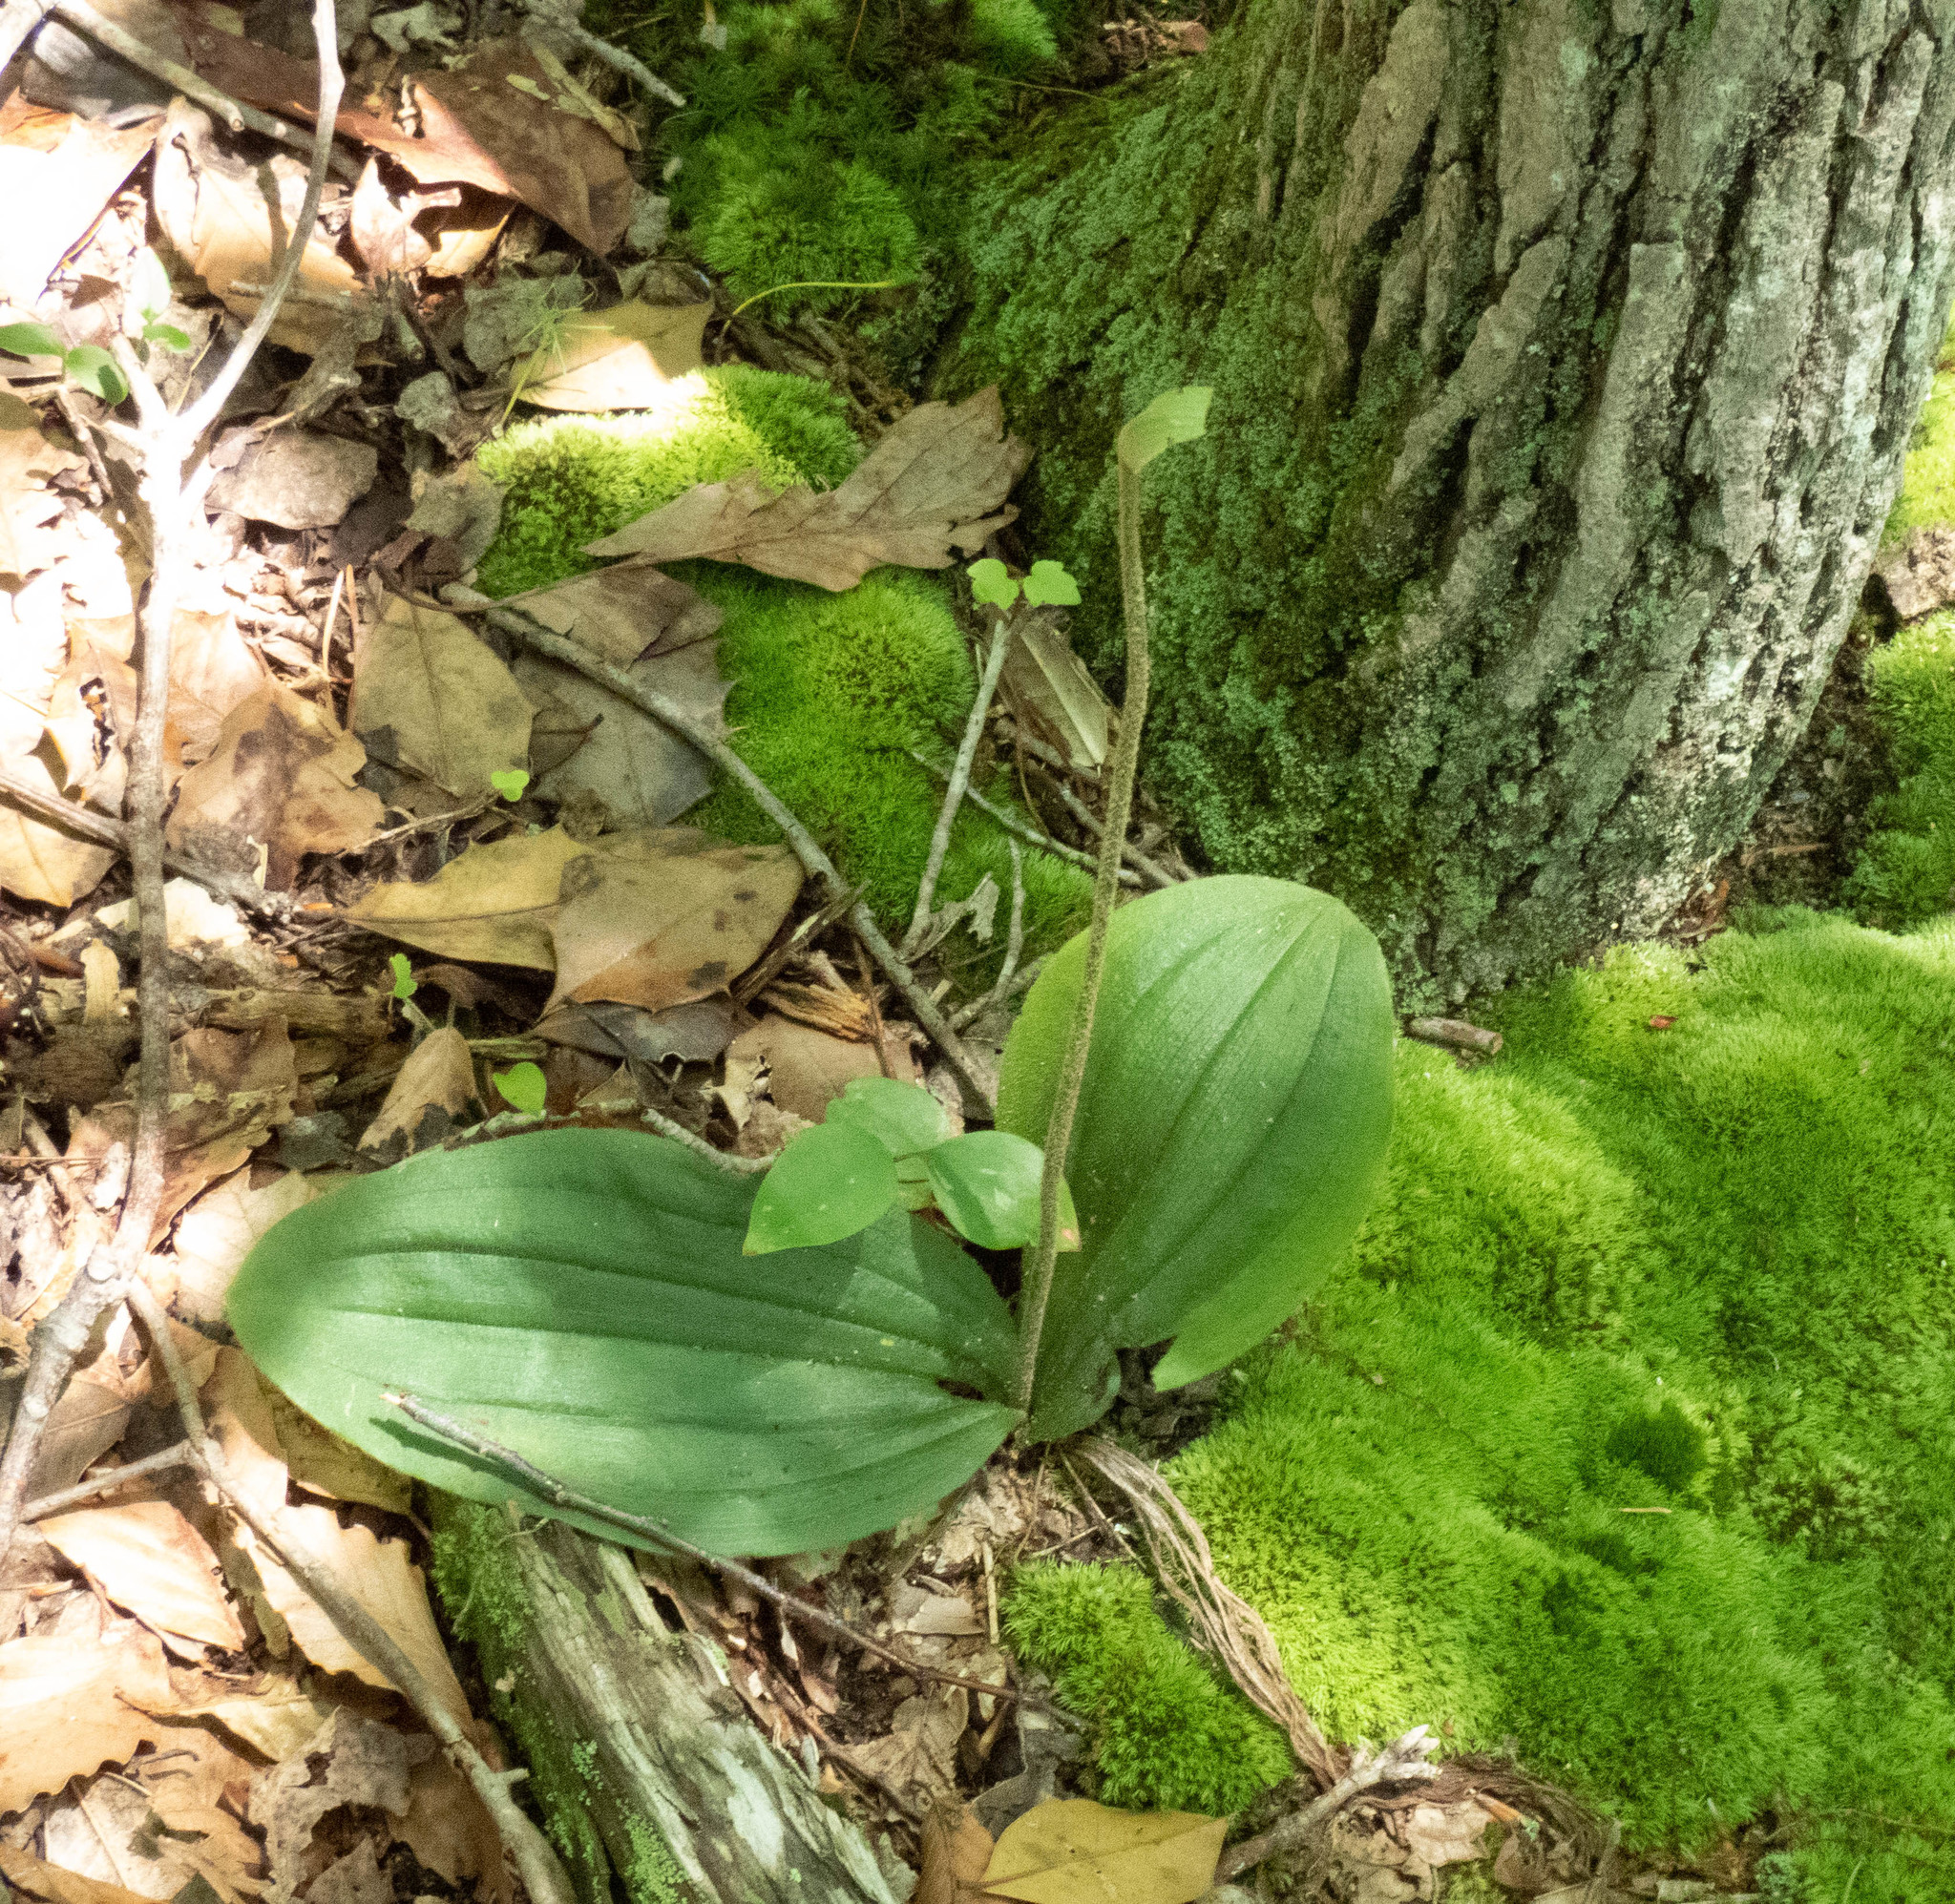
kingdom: Plantae
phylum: Tracheophyta
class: Liliopsida
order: Asparagales
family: Orchidaceae
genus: Cypripedium
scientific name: Cypripedium acaule
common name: Pink lady's-slipper
